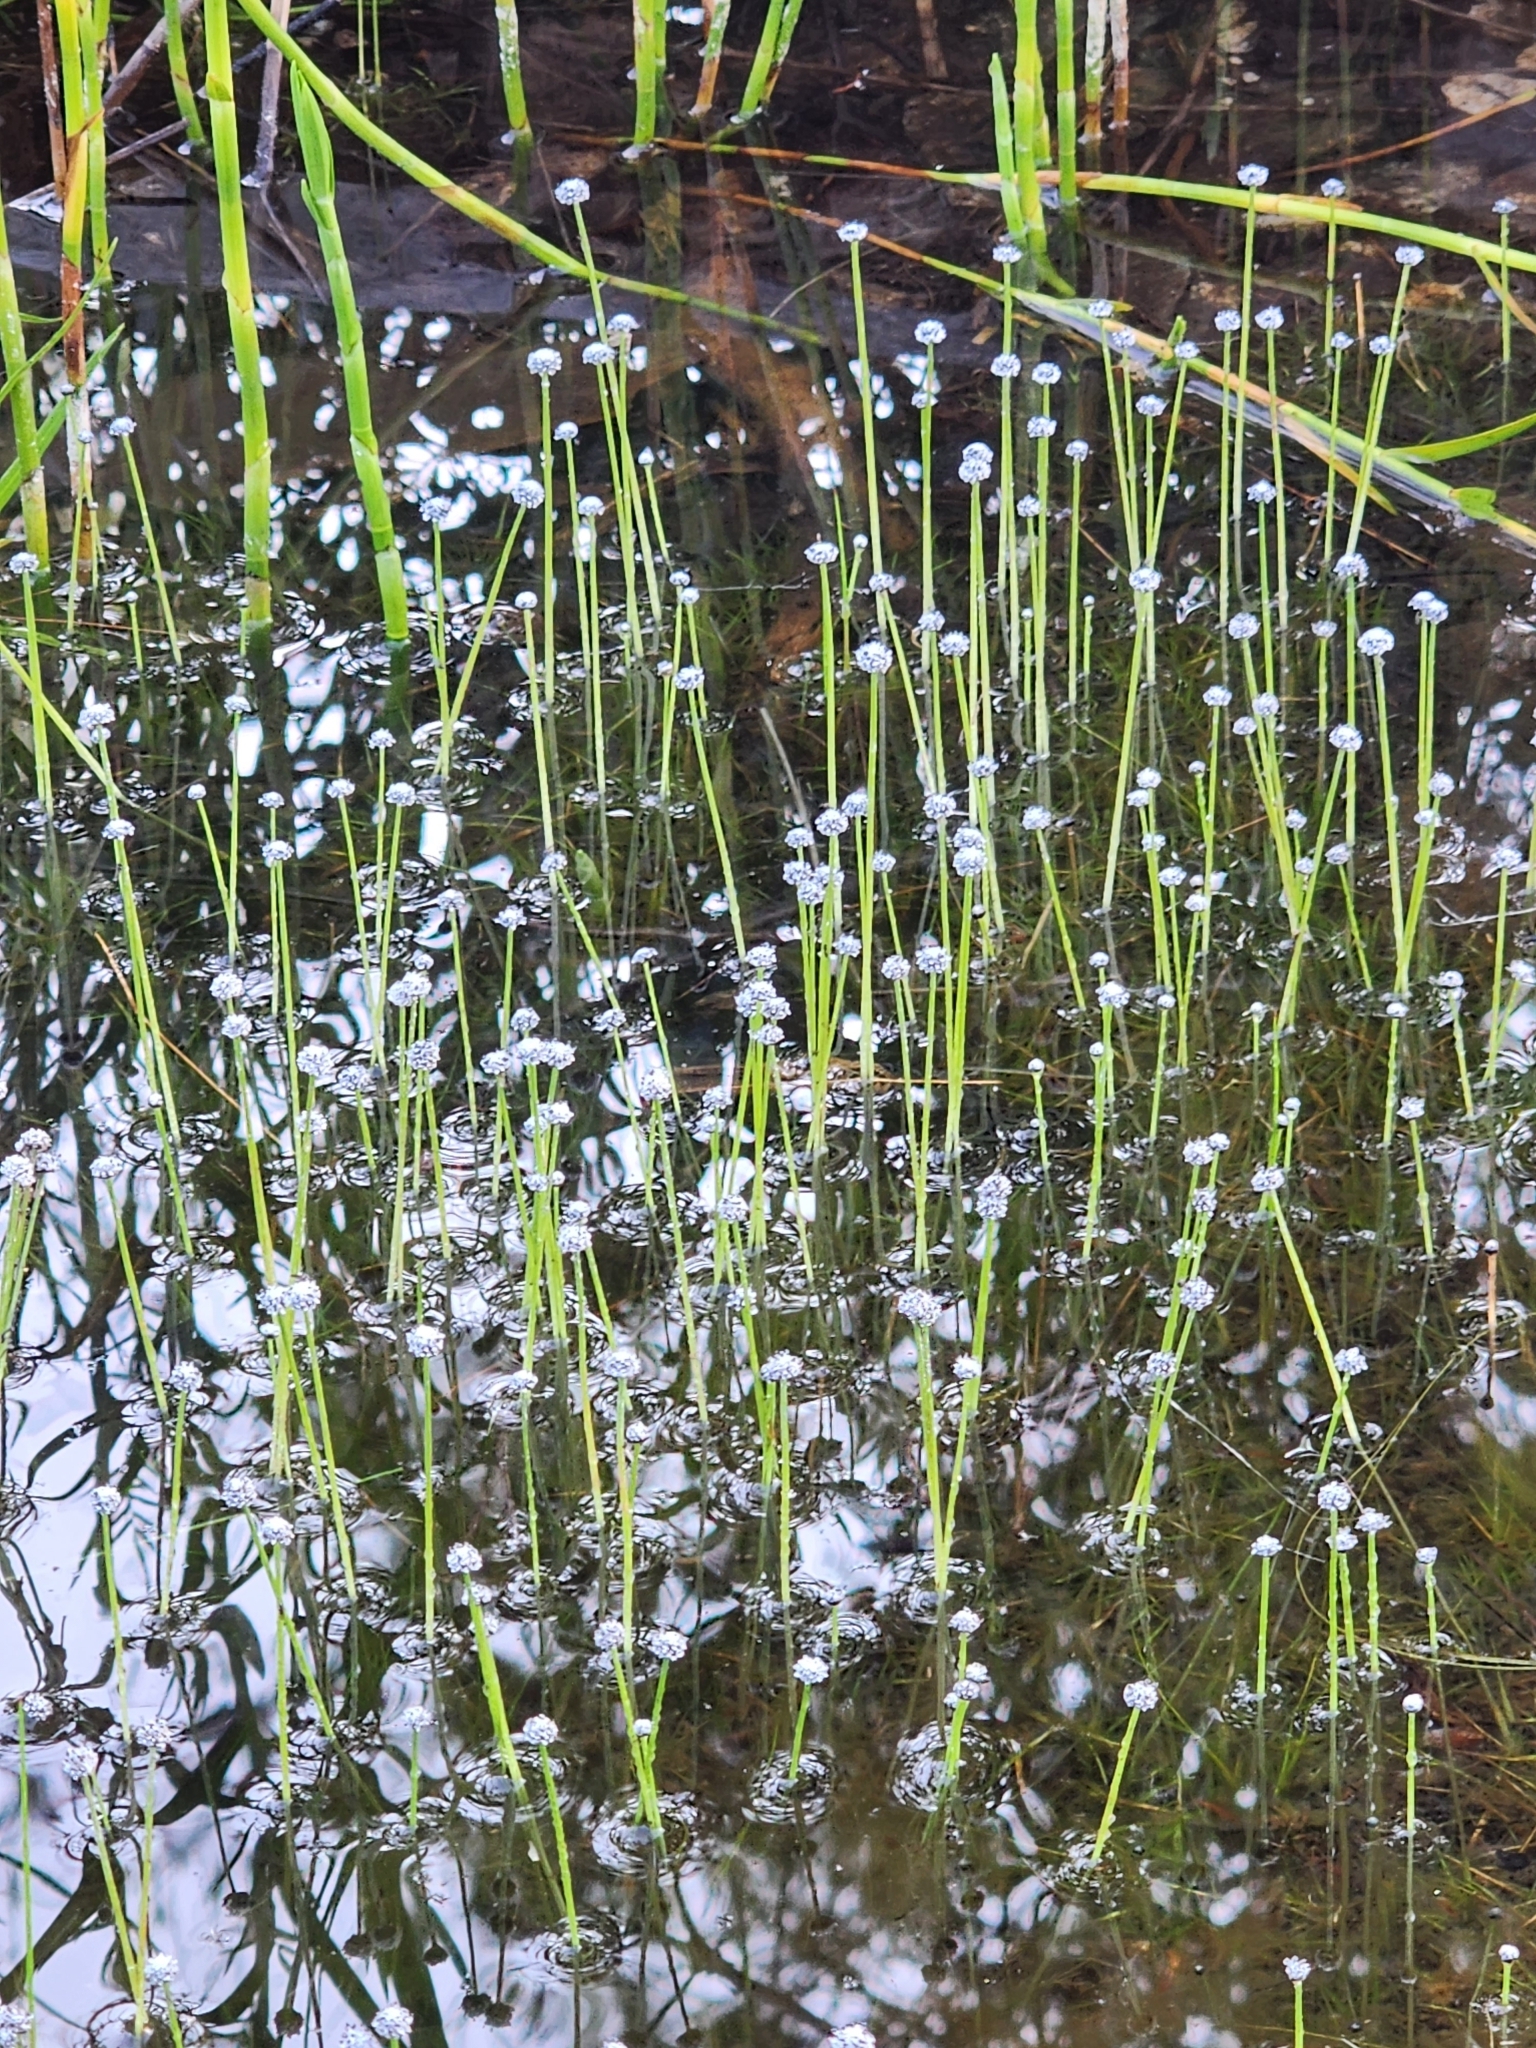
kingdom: Plantae
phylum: Tracheophyta
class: Liliopsida
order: Poales
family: Eriocaulaceae
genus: Eriocaulon
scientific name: Eriocaulon aquaticum
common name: Pipewort
